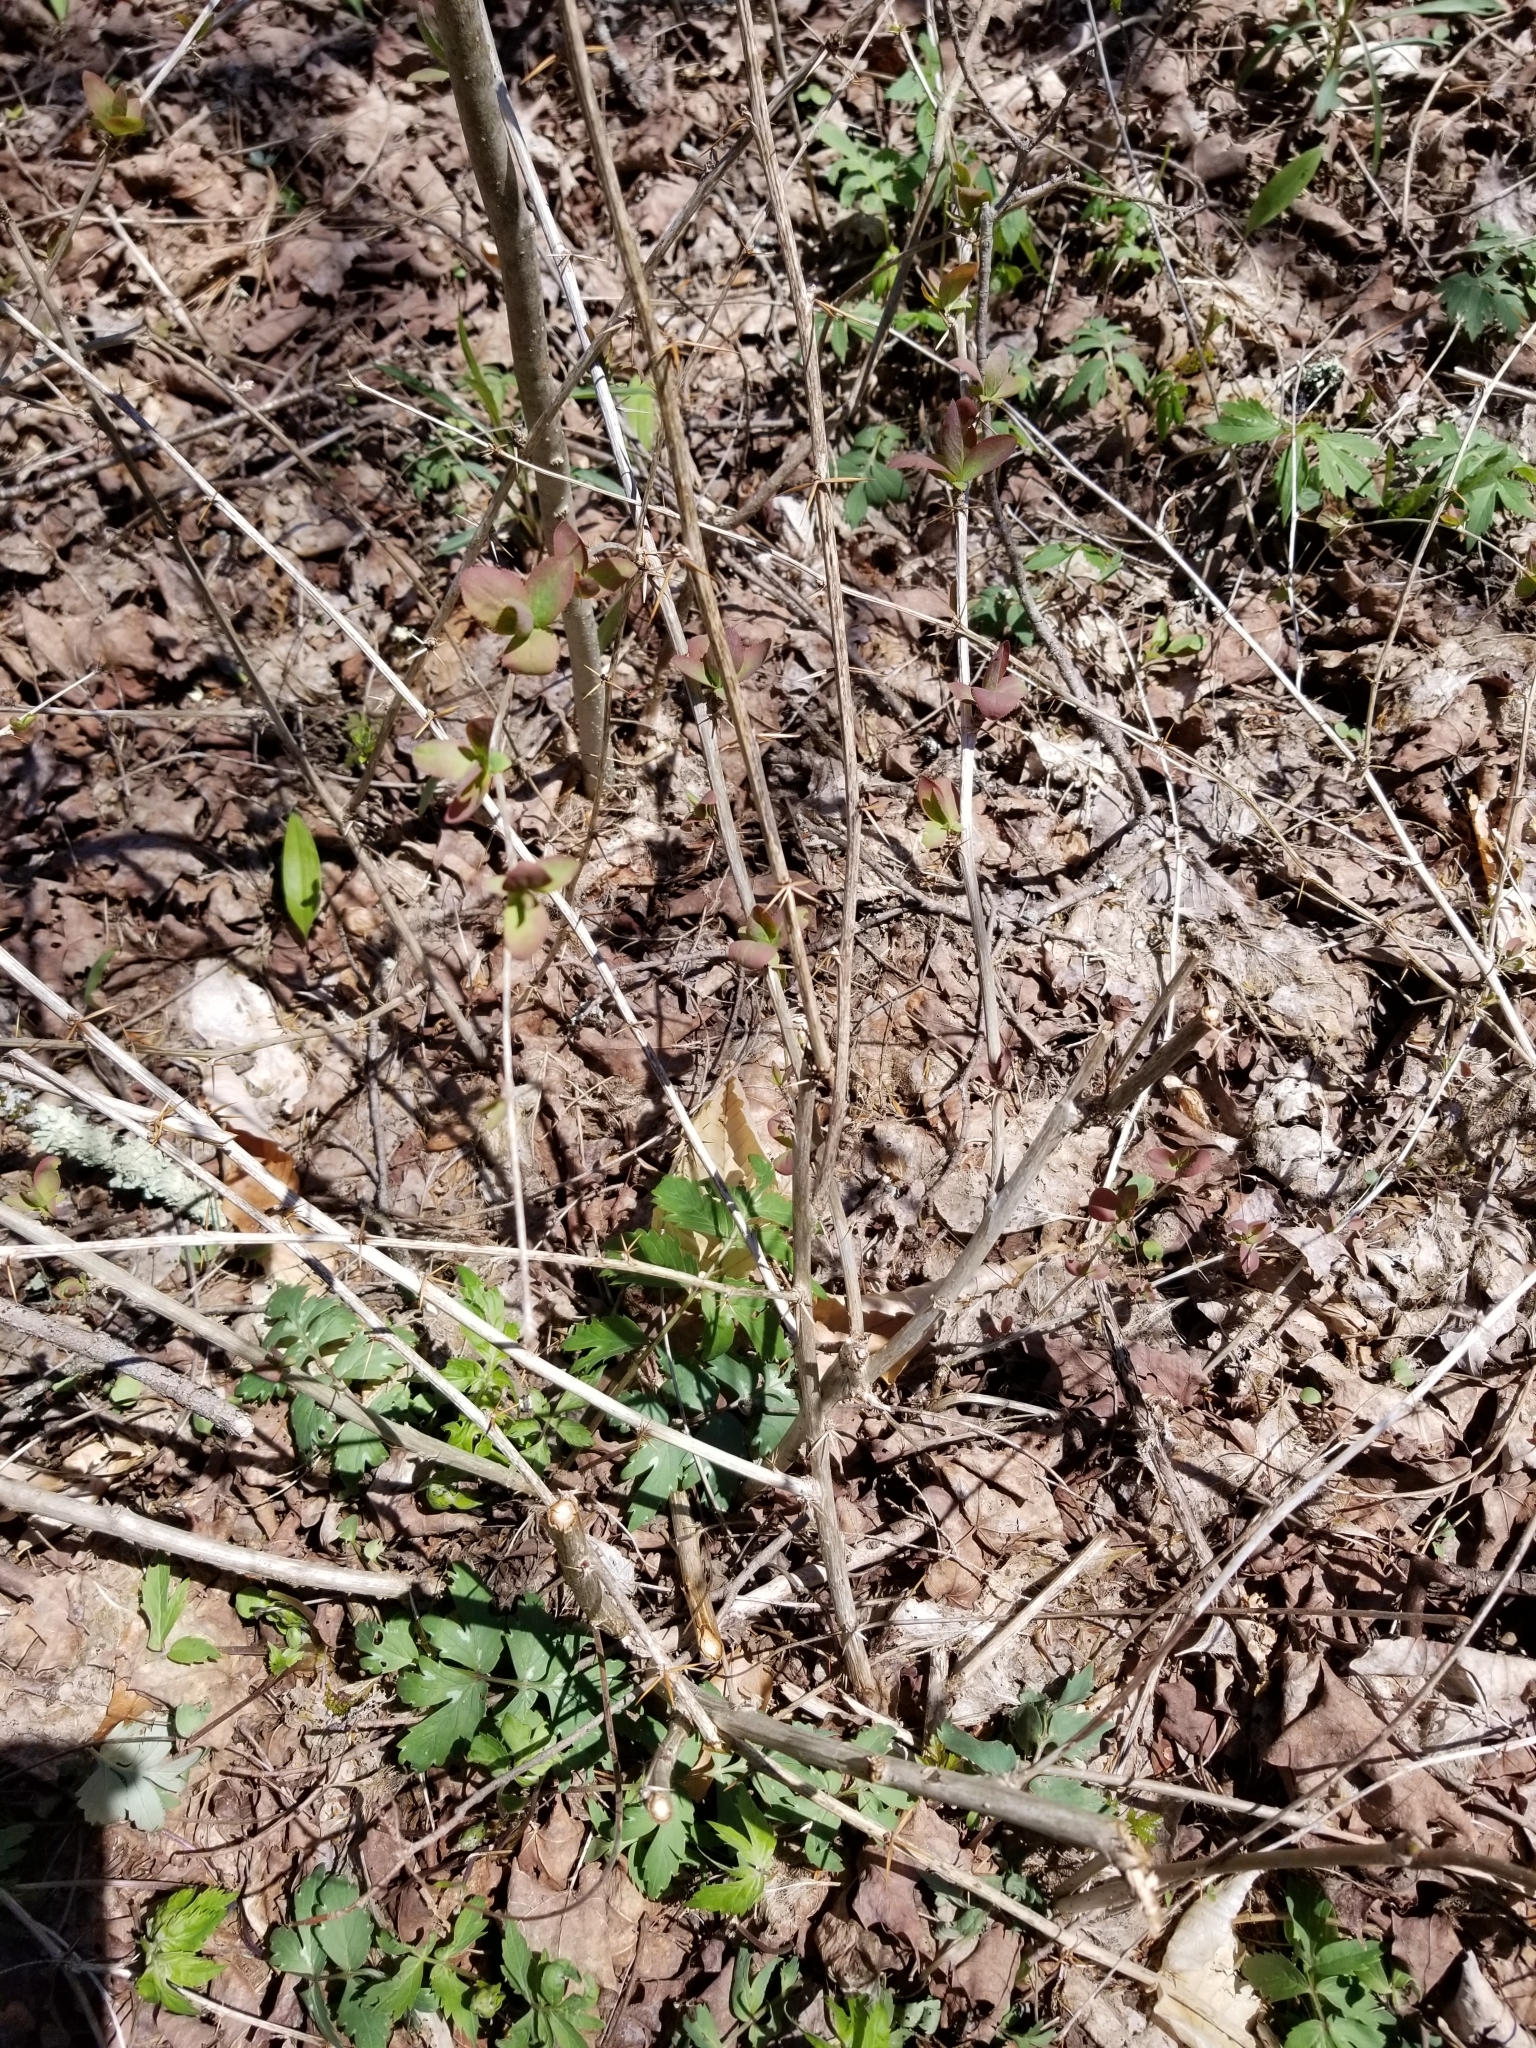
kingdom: Plantae
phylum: Tracheophyta
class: Magnoliopsida
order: Ranunculales
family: Berberidaceae
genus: Berberis
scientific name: Berberis vulgaris
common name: Barberry
